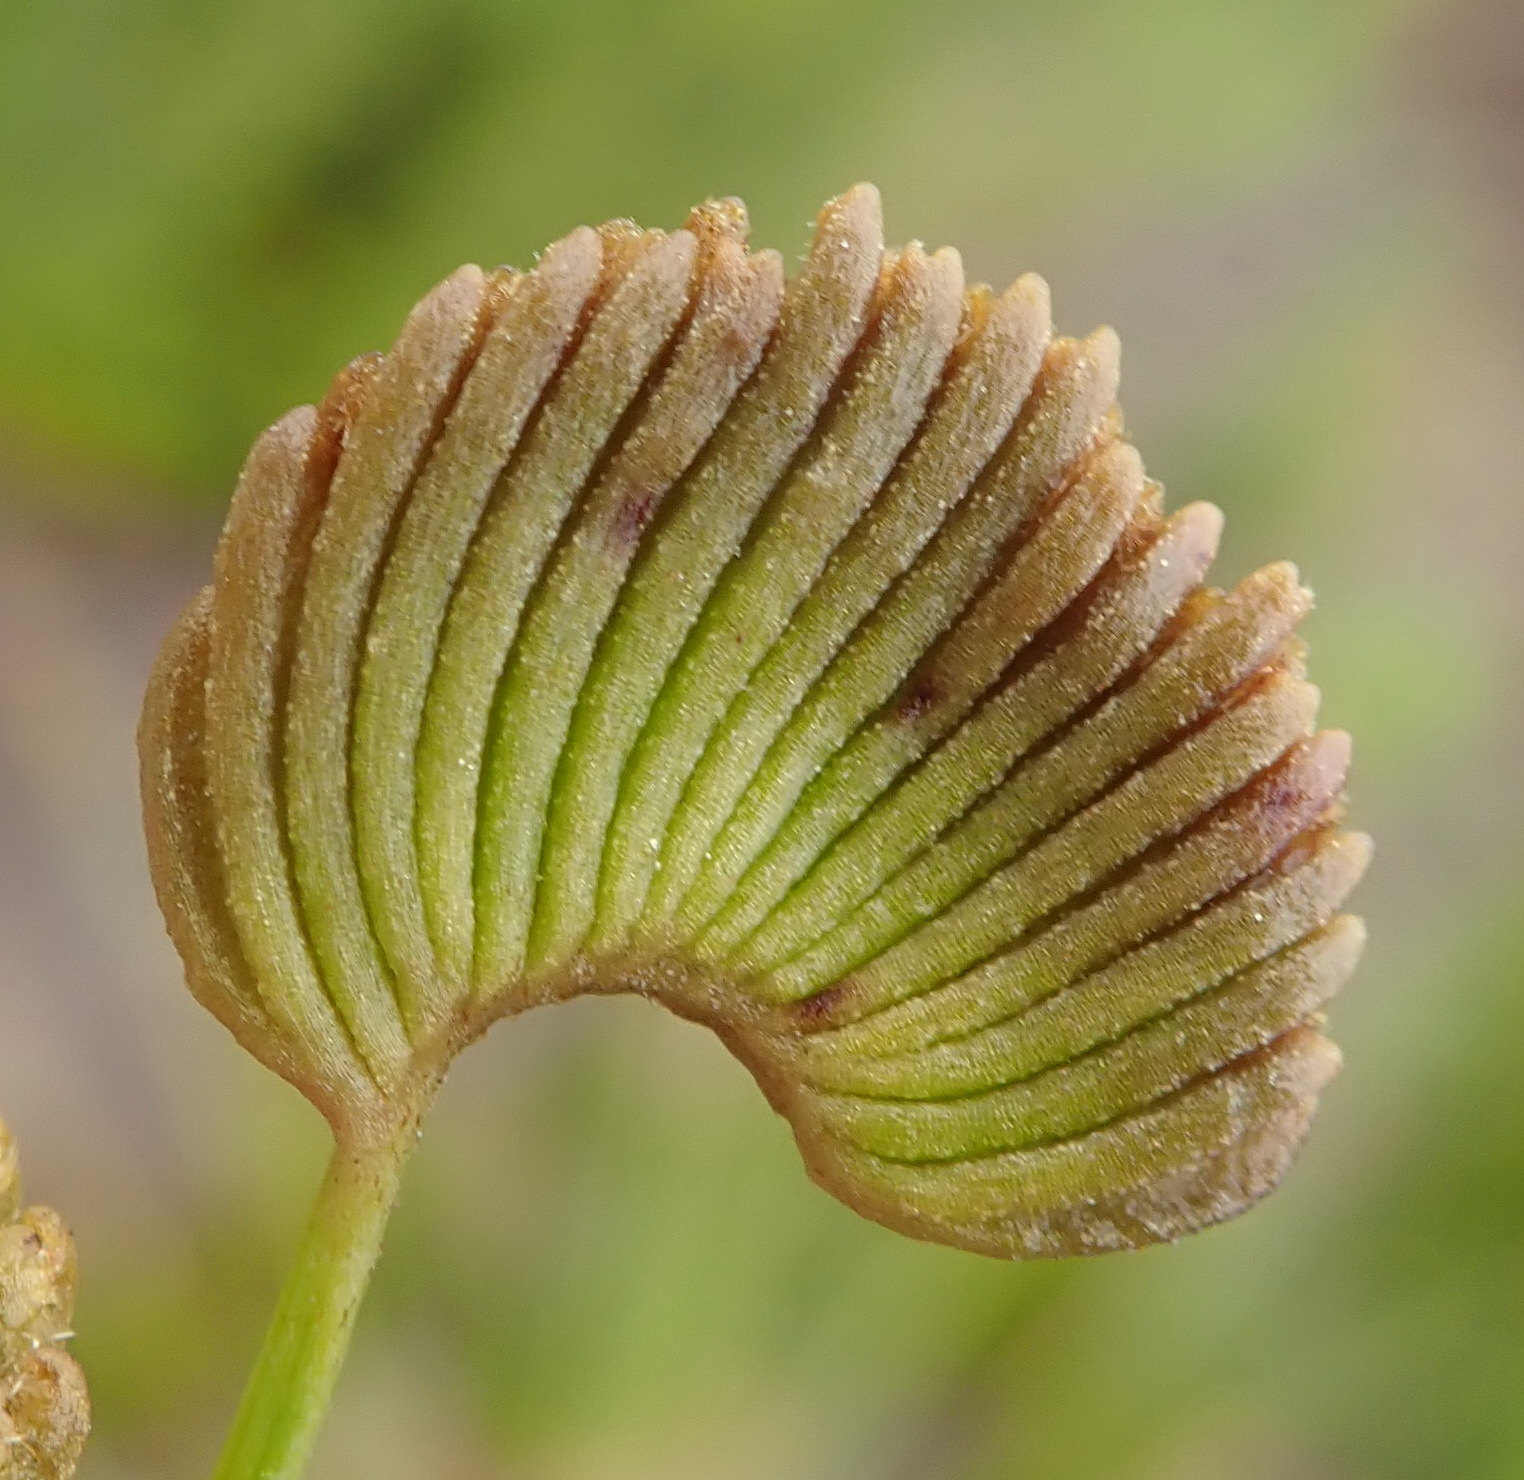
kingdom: Plantae
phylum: Tracheophyta
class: Polypodiopsida
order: Schizaeales
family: Schizaeaceae
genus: Schizaea
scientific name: Schizaea pectinata
